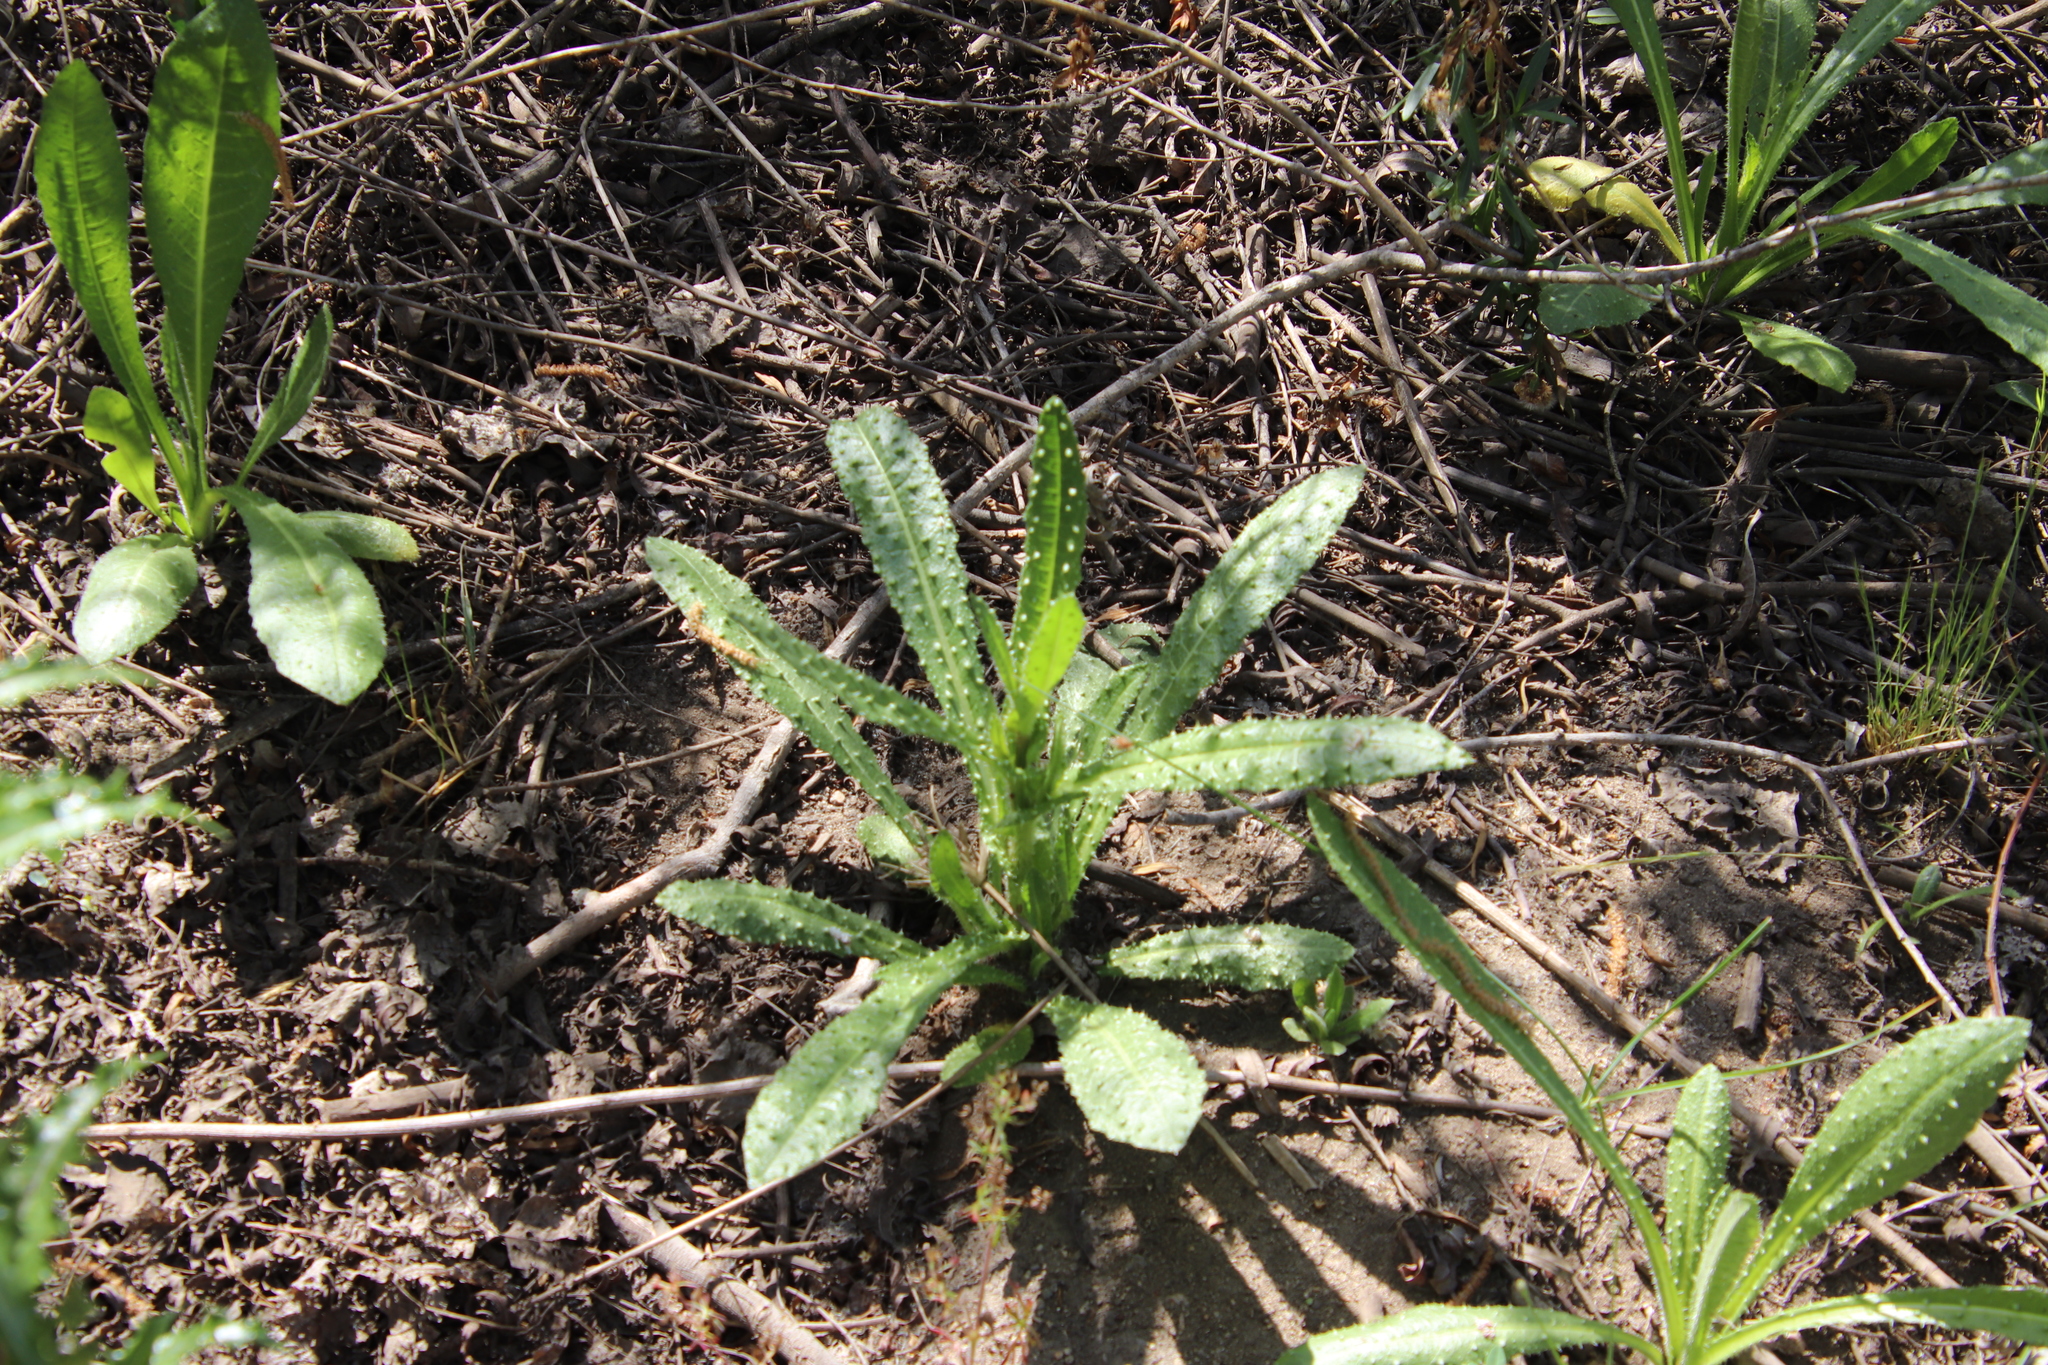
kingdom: Plantae
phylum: Tracheophyta
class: Magnoliopsida
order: Asterales
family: Asteraceae
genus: Helminthotheca
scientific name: Helminthotheca echioides
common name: Ox-tongue
